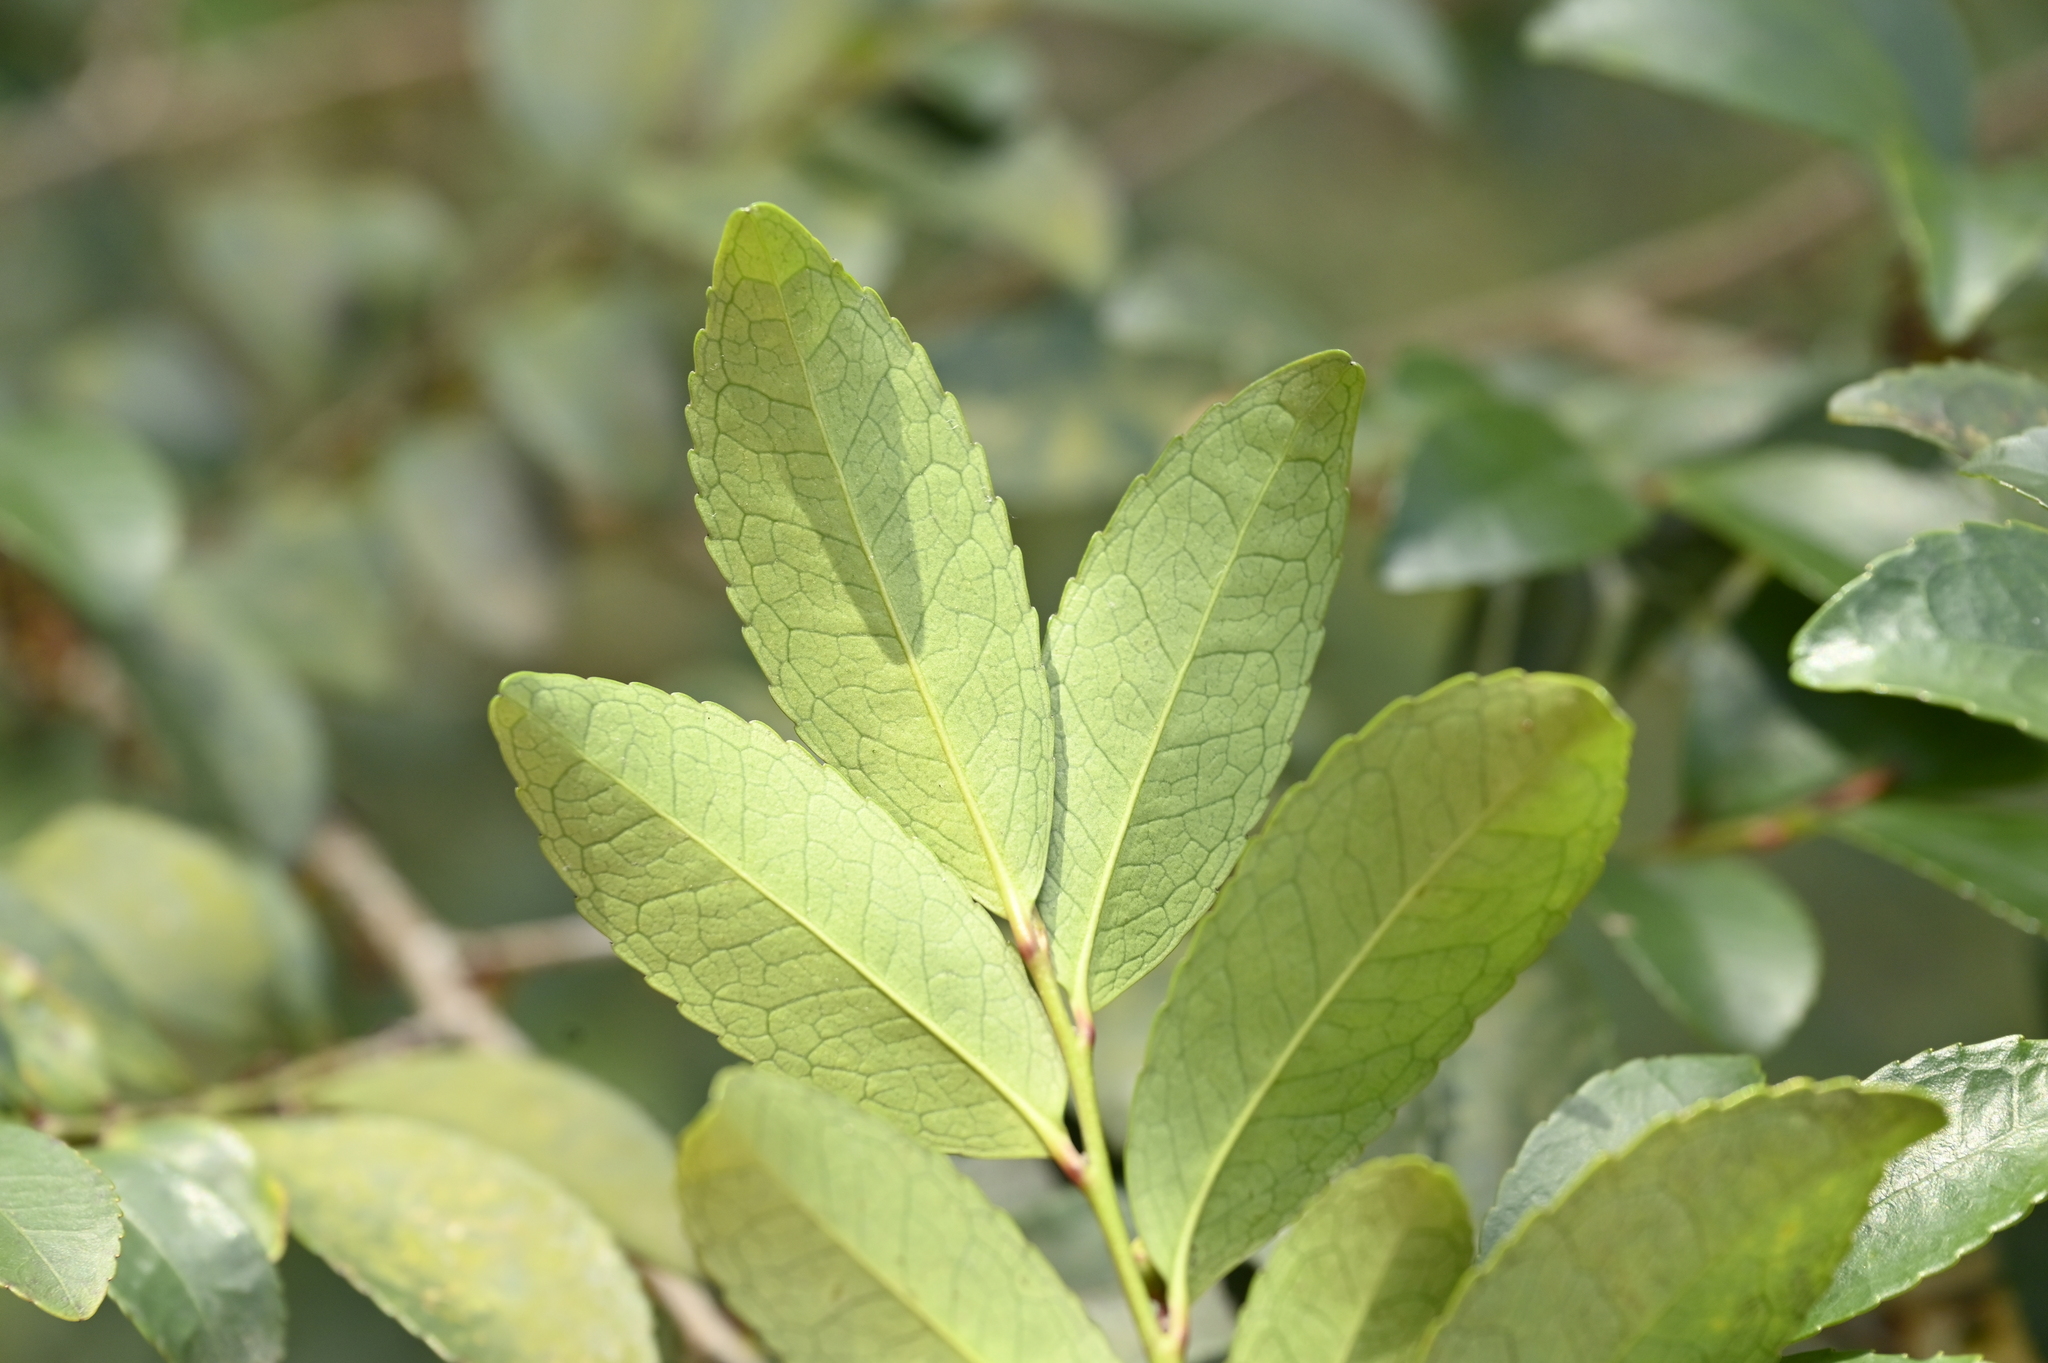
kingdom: Plantae
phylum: Tracheophyta
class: Magnoliopsida
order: Ericales
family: Pentaphylacaceae
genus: Eurya
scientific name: Eurya japonica
